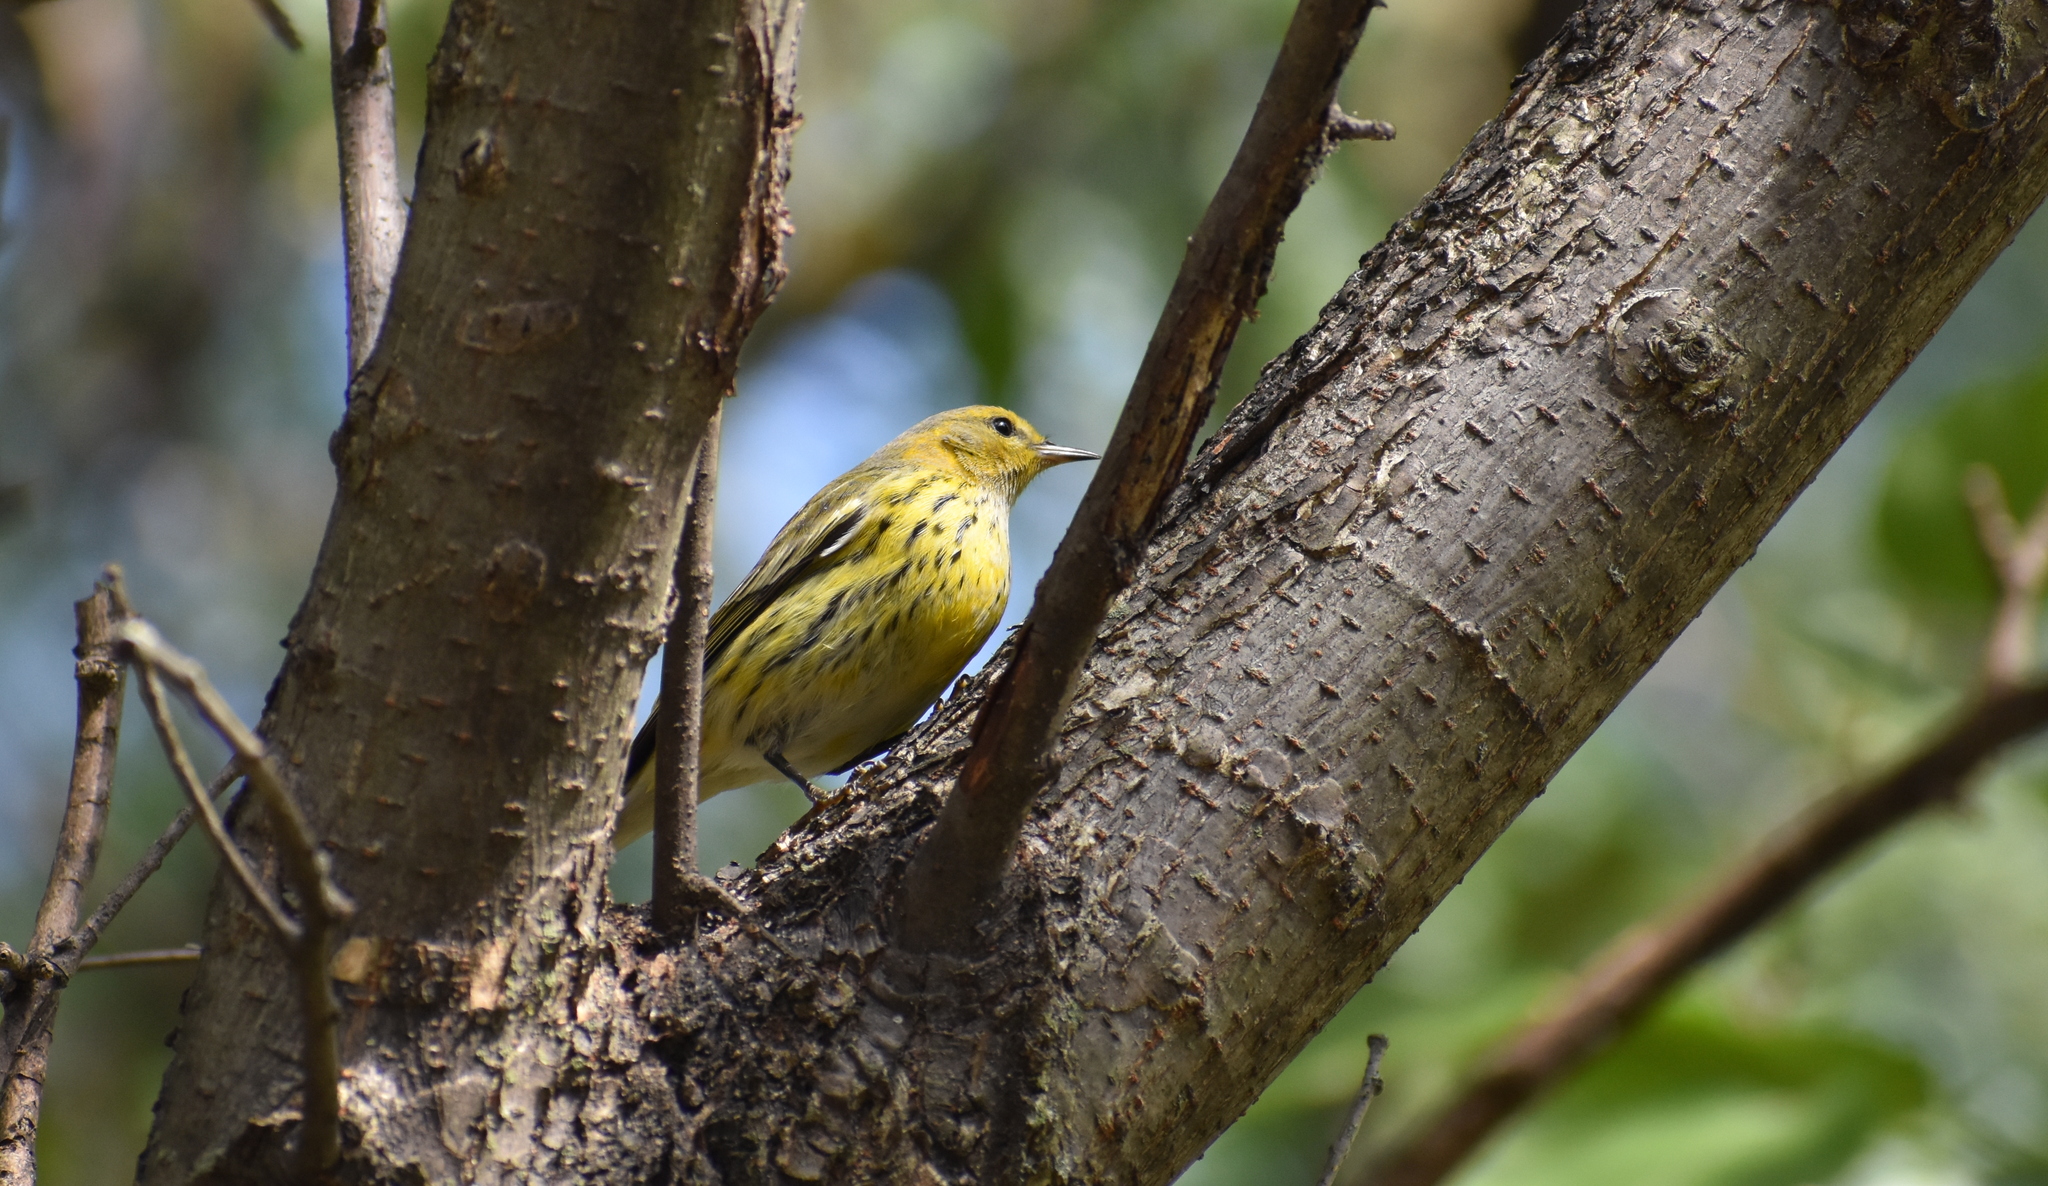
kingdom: Animalia
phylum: Chordata
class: Aves
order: Passeriformes
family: Parulidae
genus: Setophaga
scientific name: Setophaga tigrina
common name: Cape may warbler
